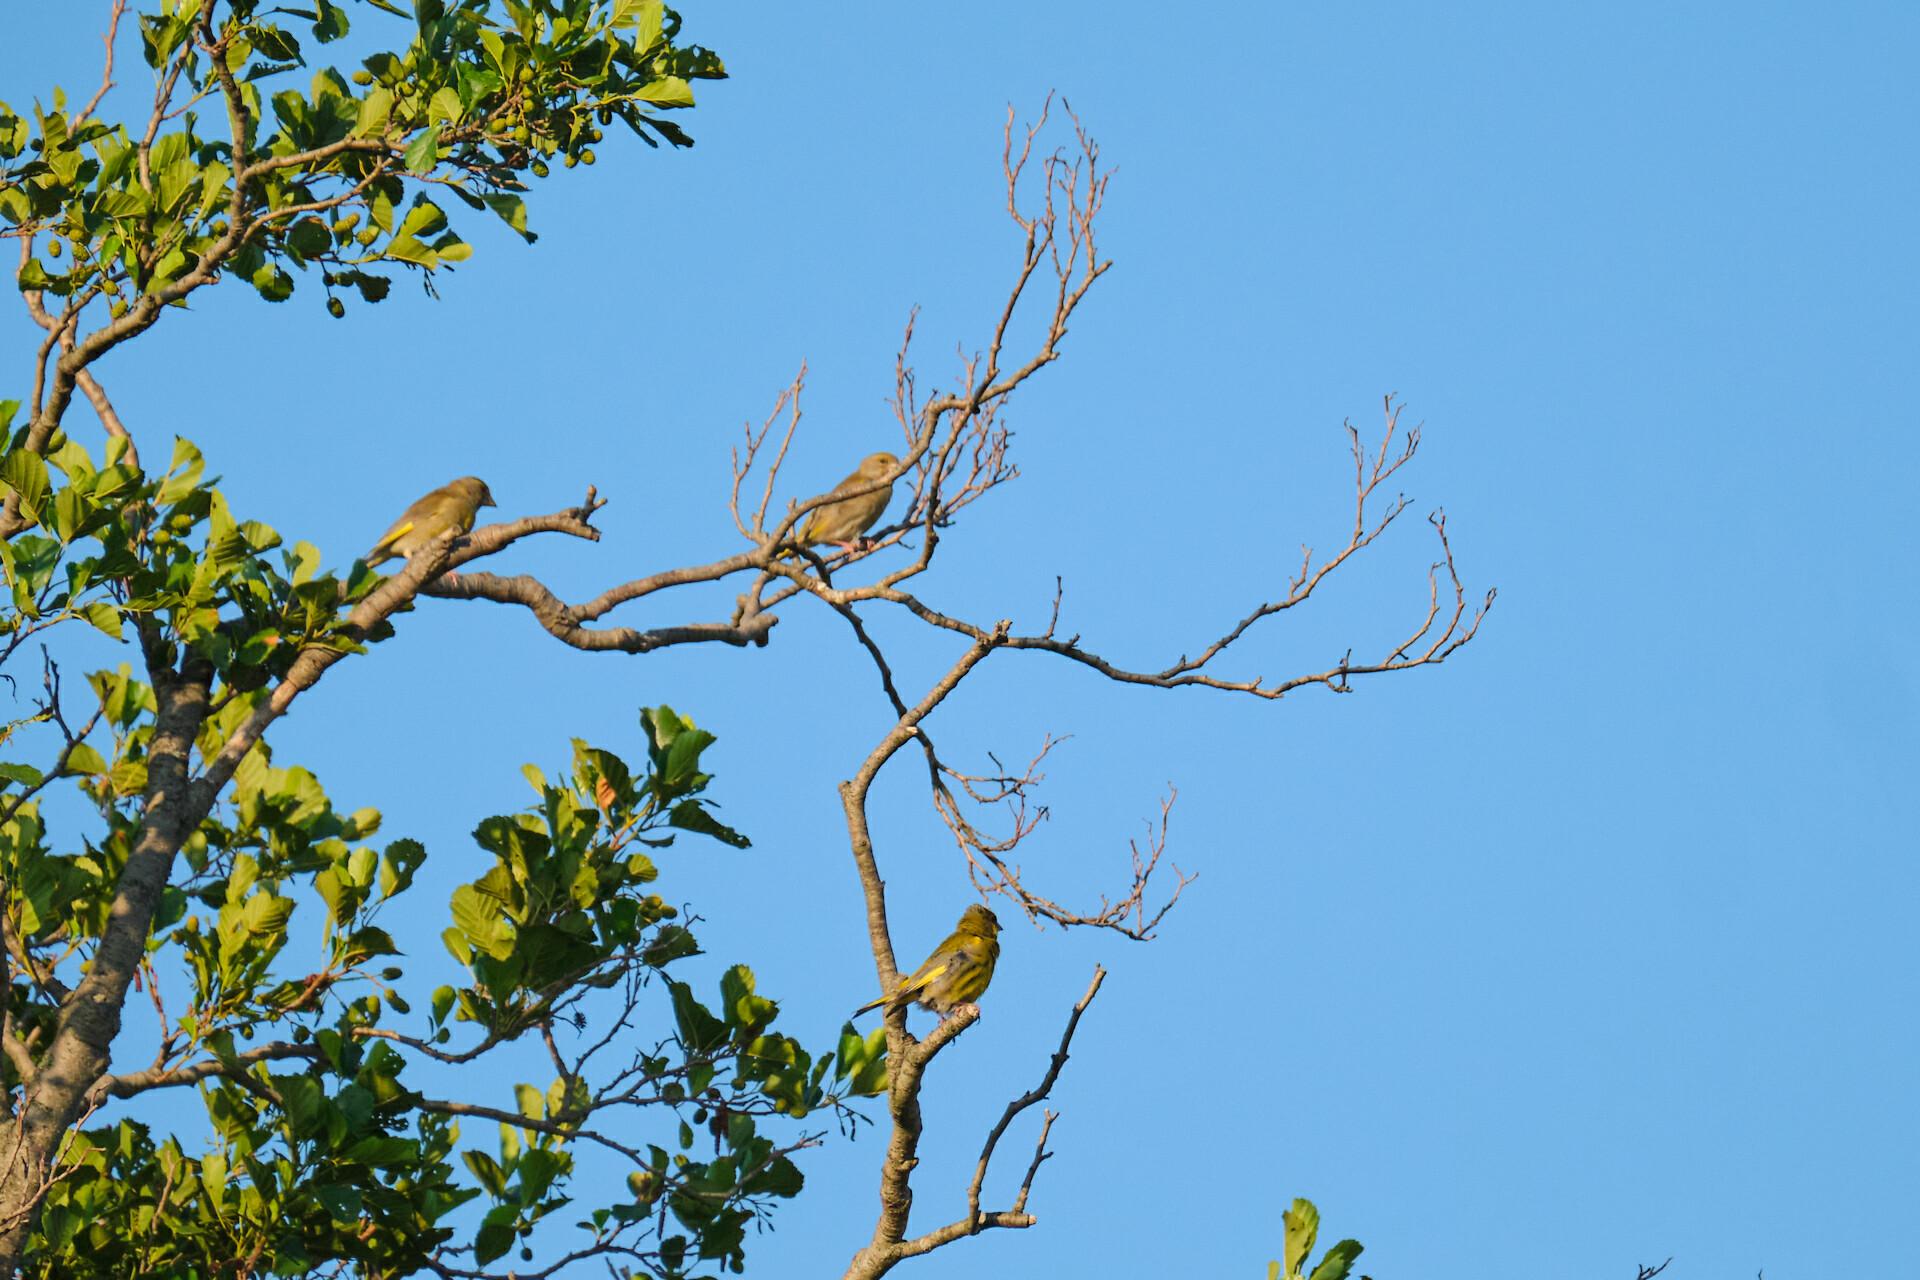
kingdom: Plantae
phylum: Tracheophyta
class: Liliopsida
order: Poales
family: Poaceae
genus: Chloris
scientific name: Chloris chloris
